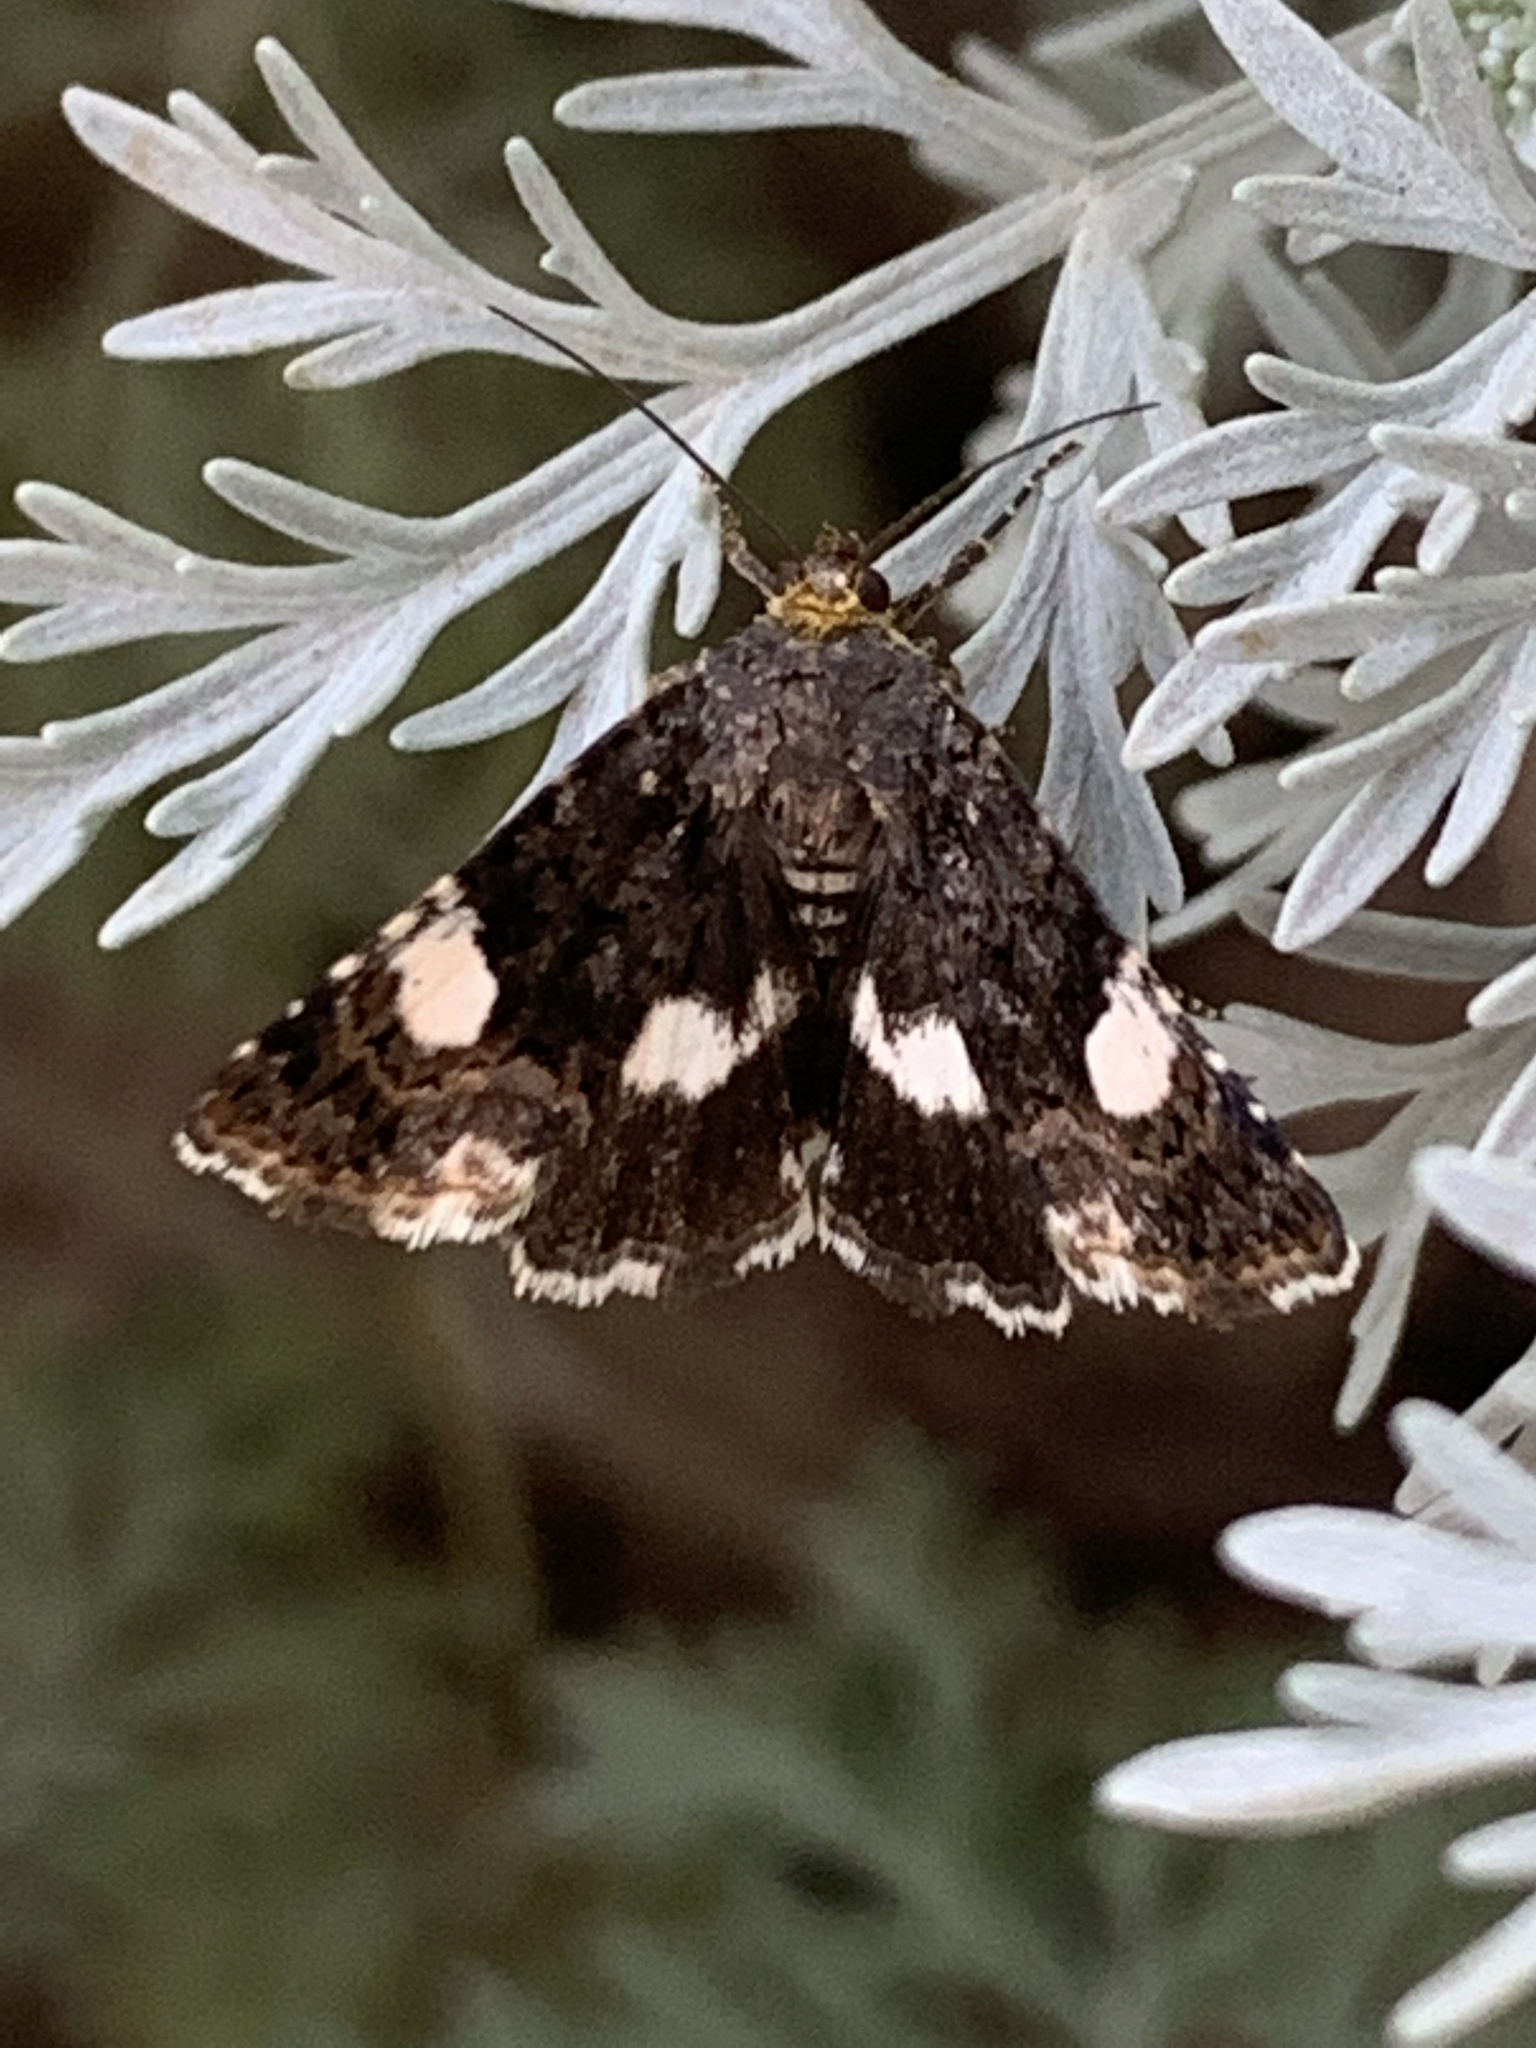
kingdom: Animalia
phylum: Arthropoda
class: Insecta
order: Lepidoptera
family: Erebidae
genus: Tyta
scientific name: Tyta luctuosa
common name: Four-spotted
